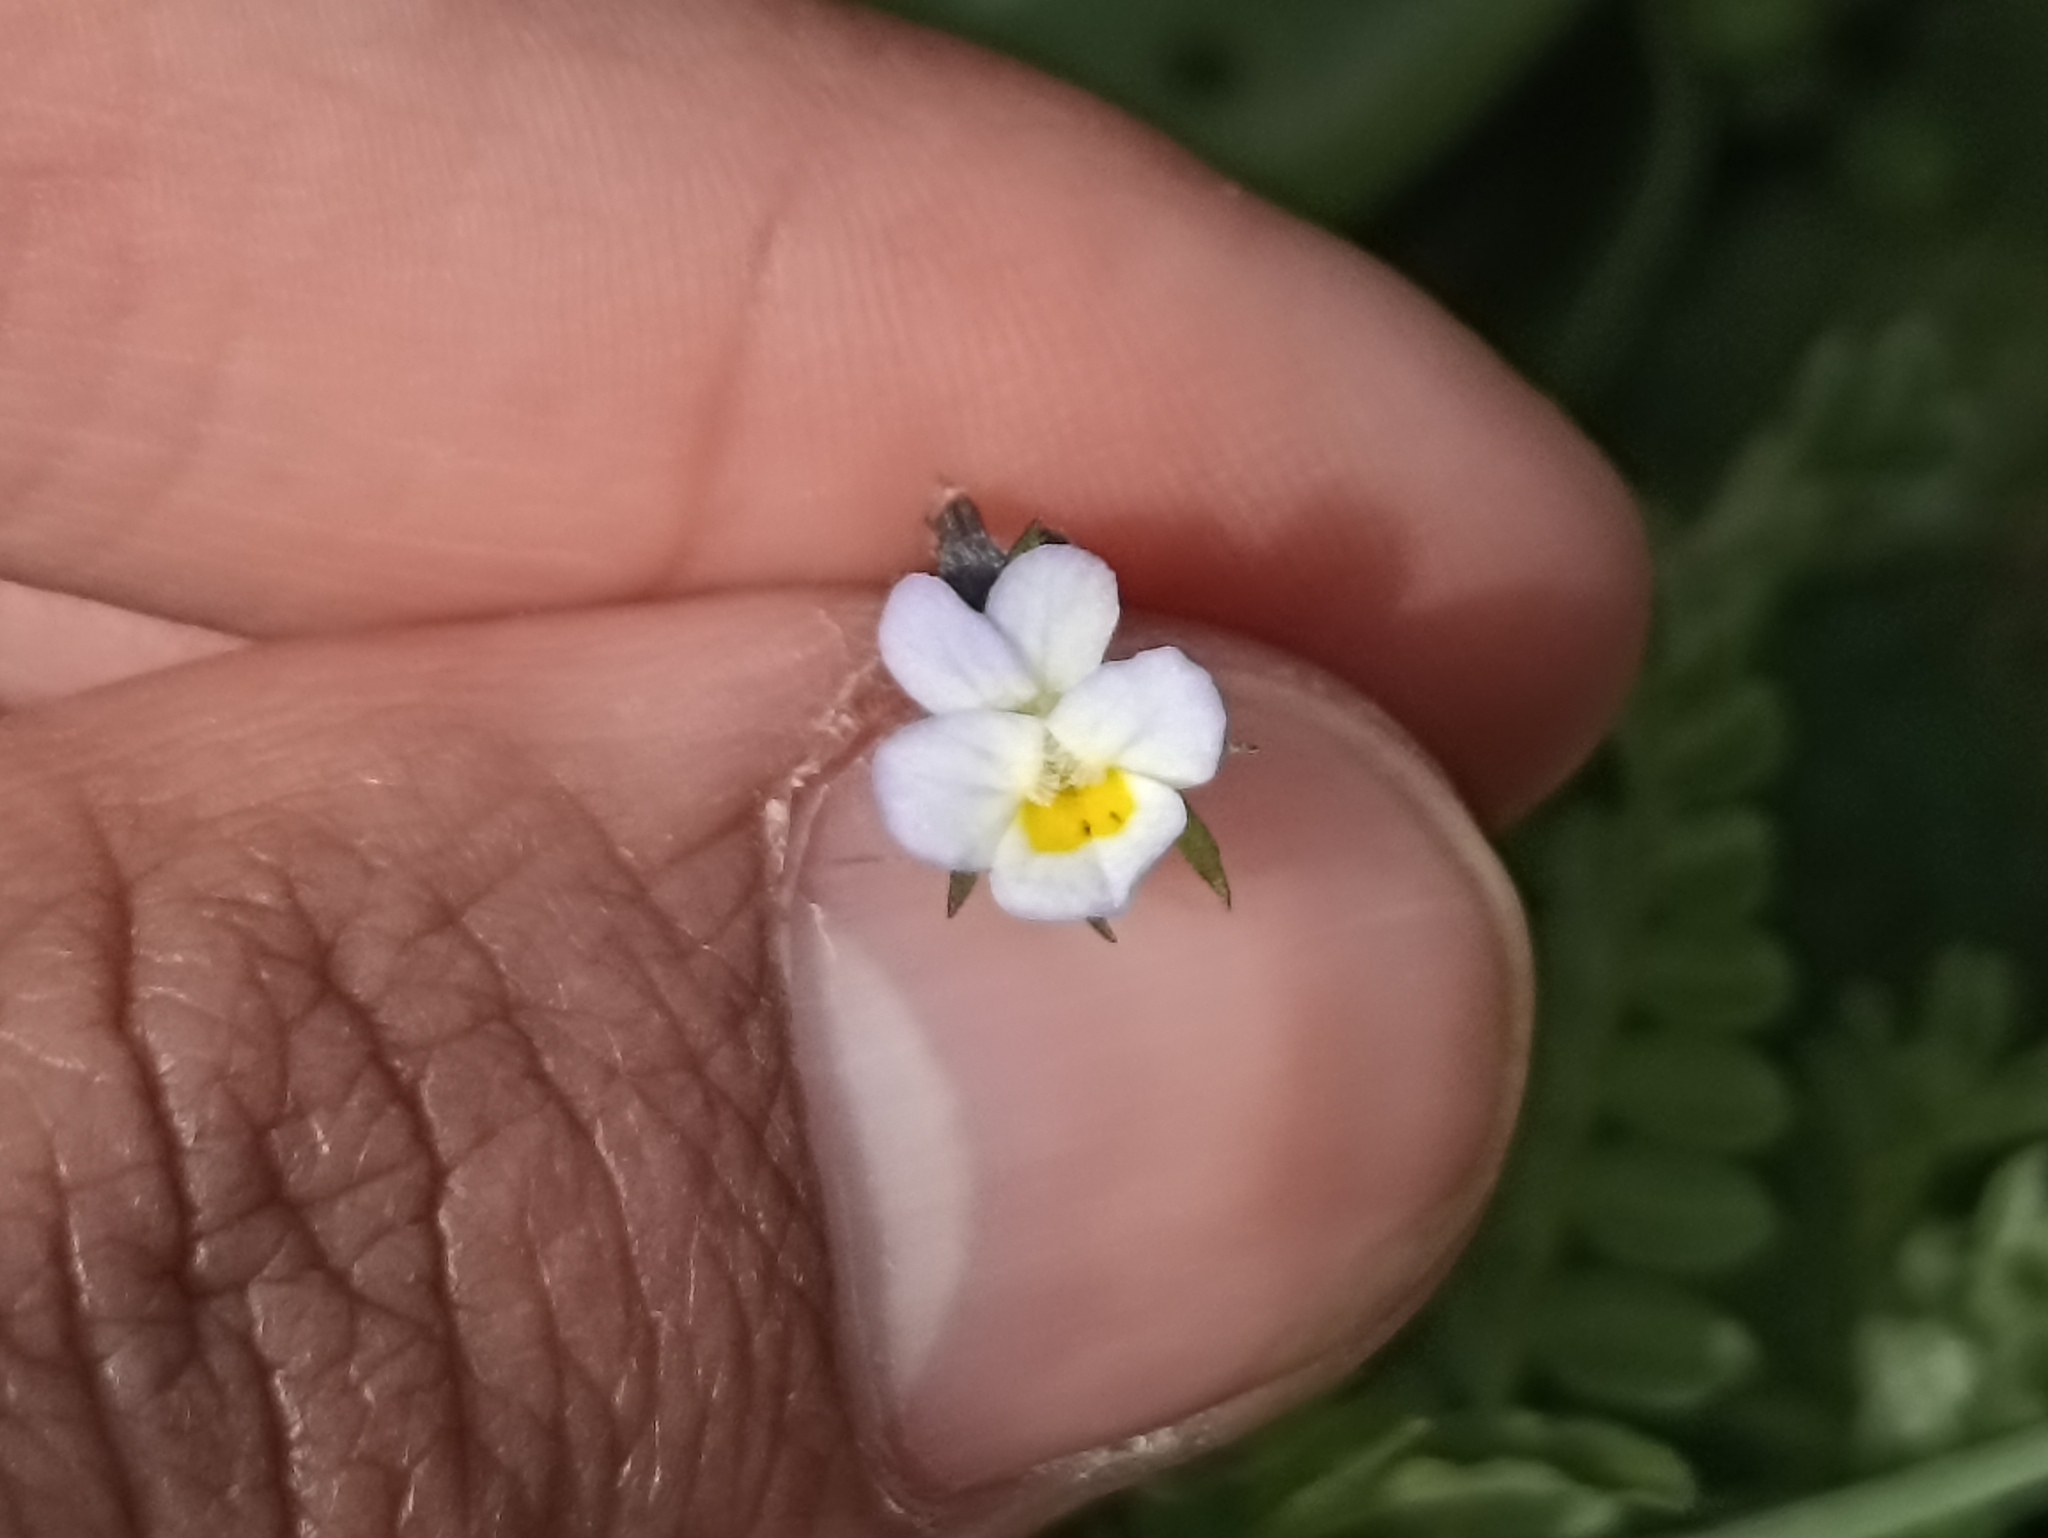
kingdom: Plantae
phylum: Tracheophyta
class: Magnoliopsida
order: Malpighiales
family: Violaceae
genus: Viola
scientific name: Viola kitaibeliana
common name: Dwarf pansy
